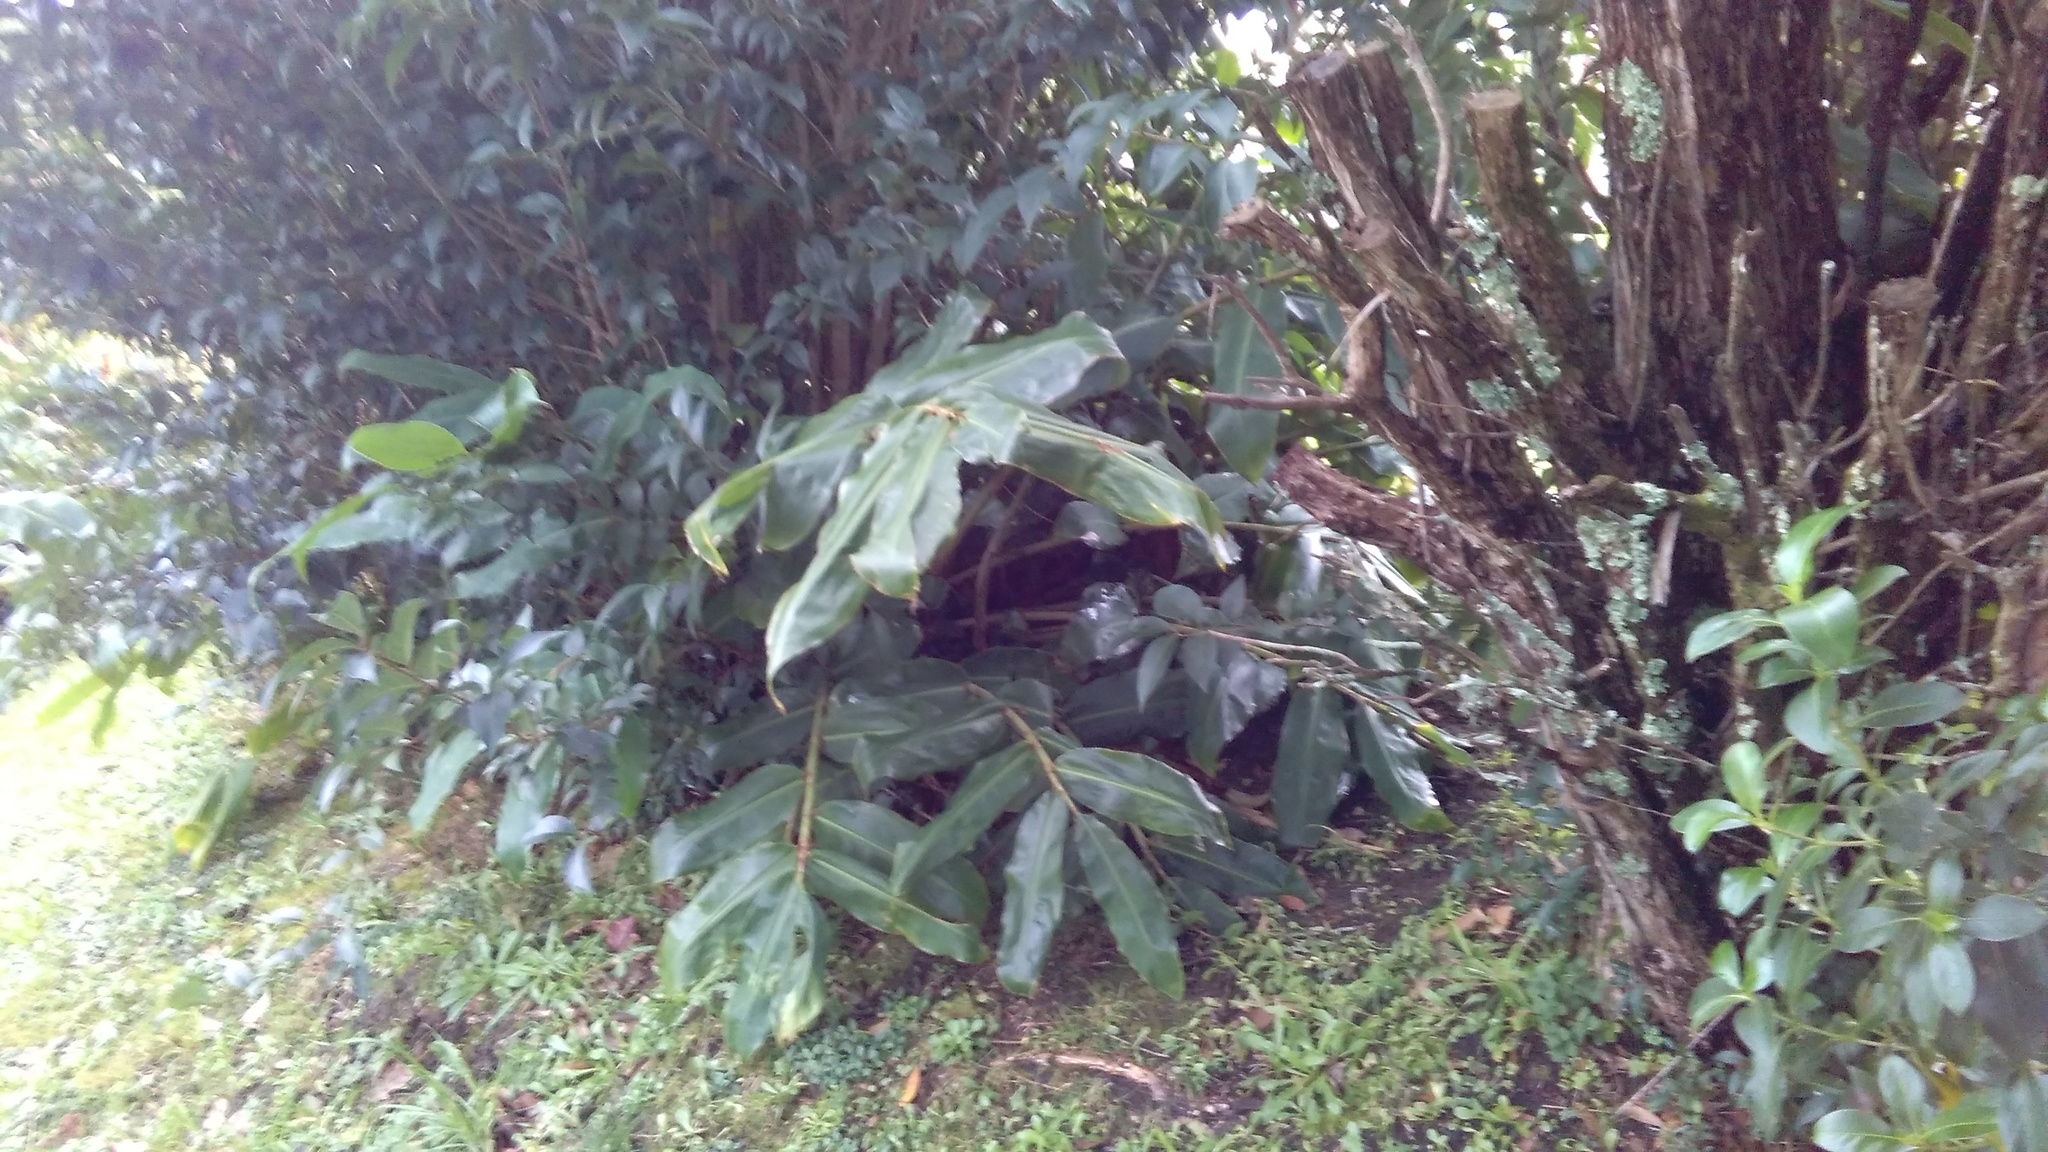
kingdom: Plantae
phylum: Tracheophyta
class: Liliopsida
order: Zingiberales
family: Zingiberaceae
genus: Hedychium
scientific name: Hedychium gardnerianum
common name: Himalayan ginger
